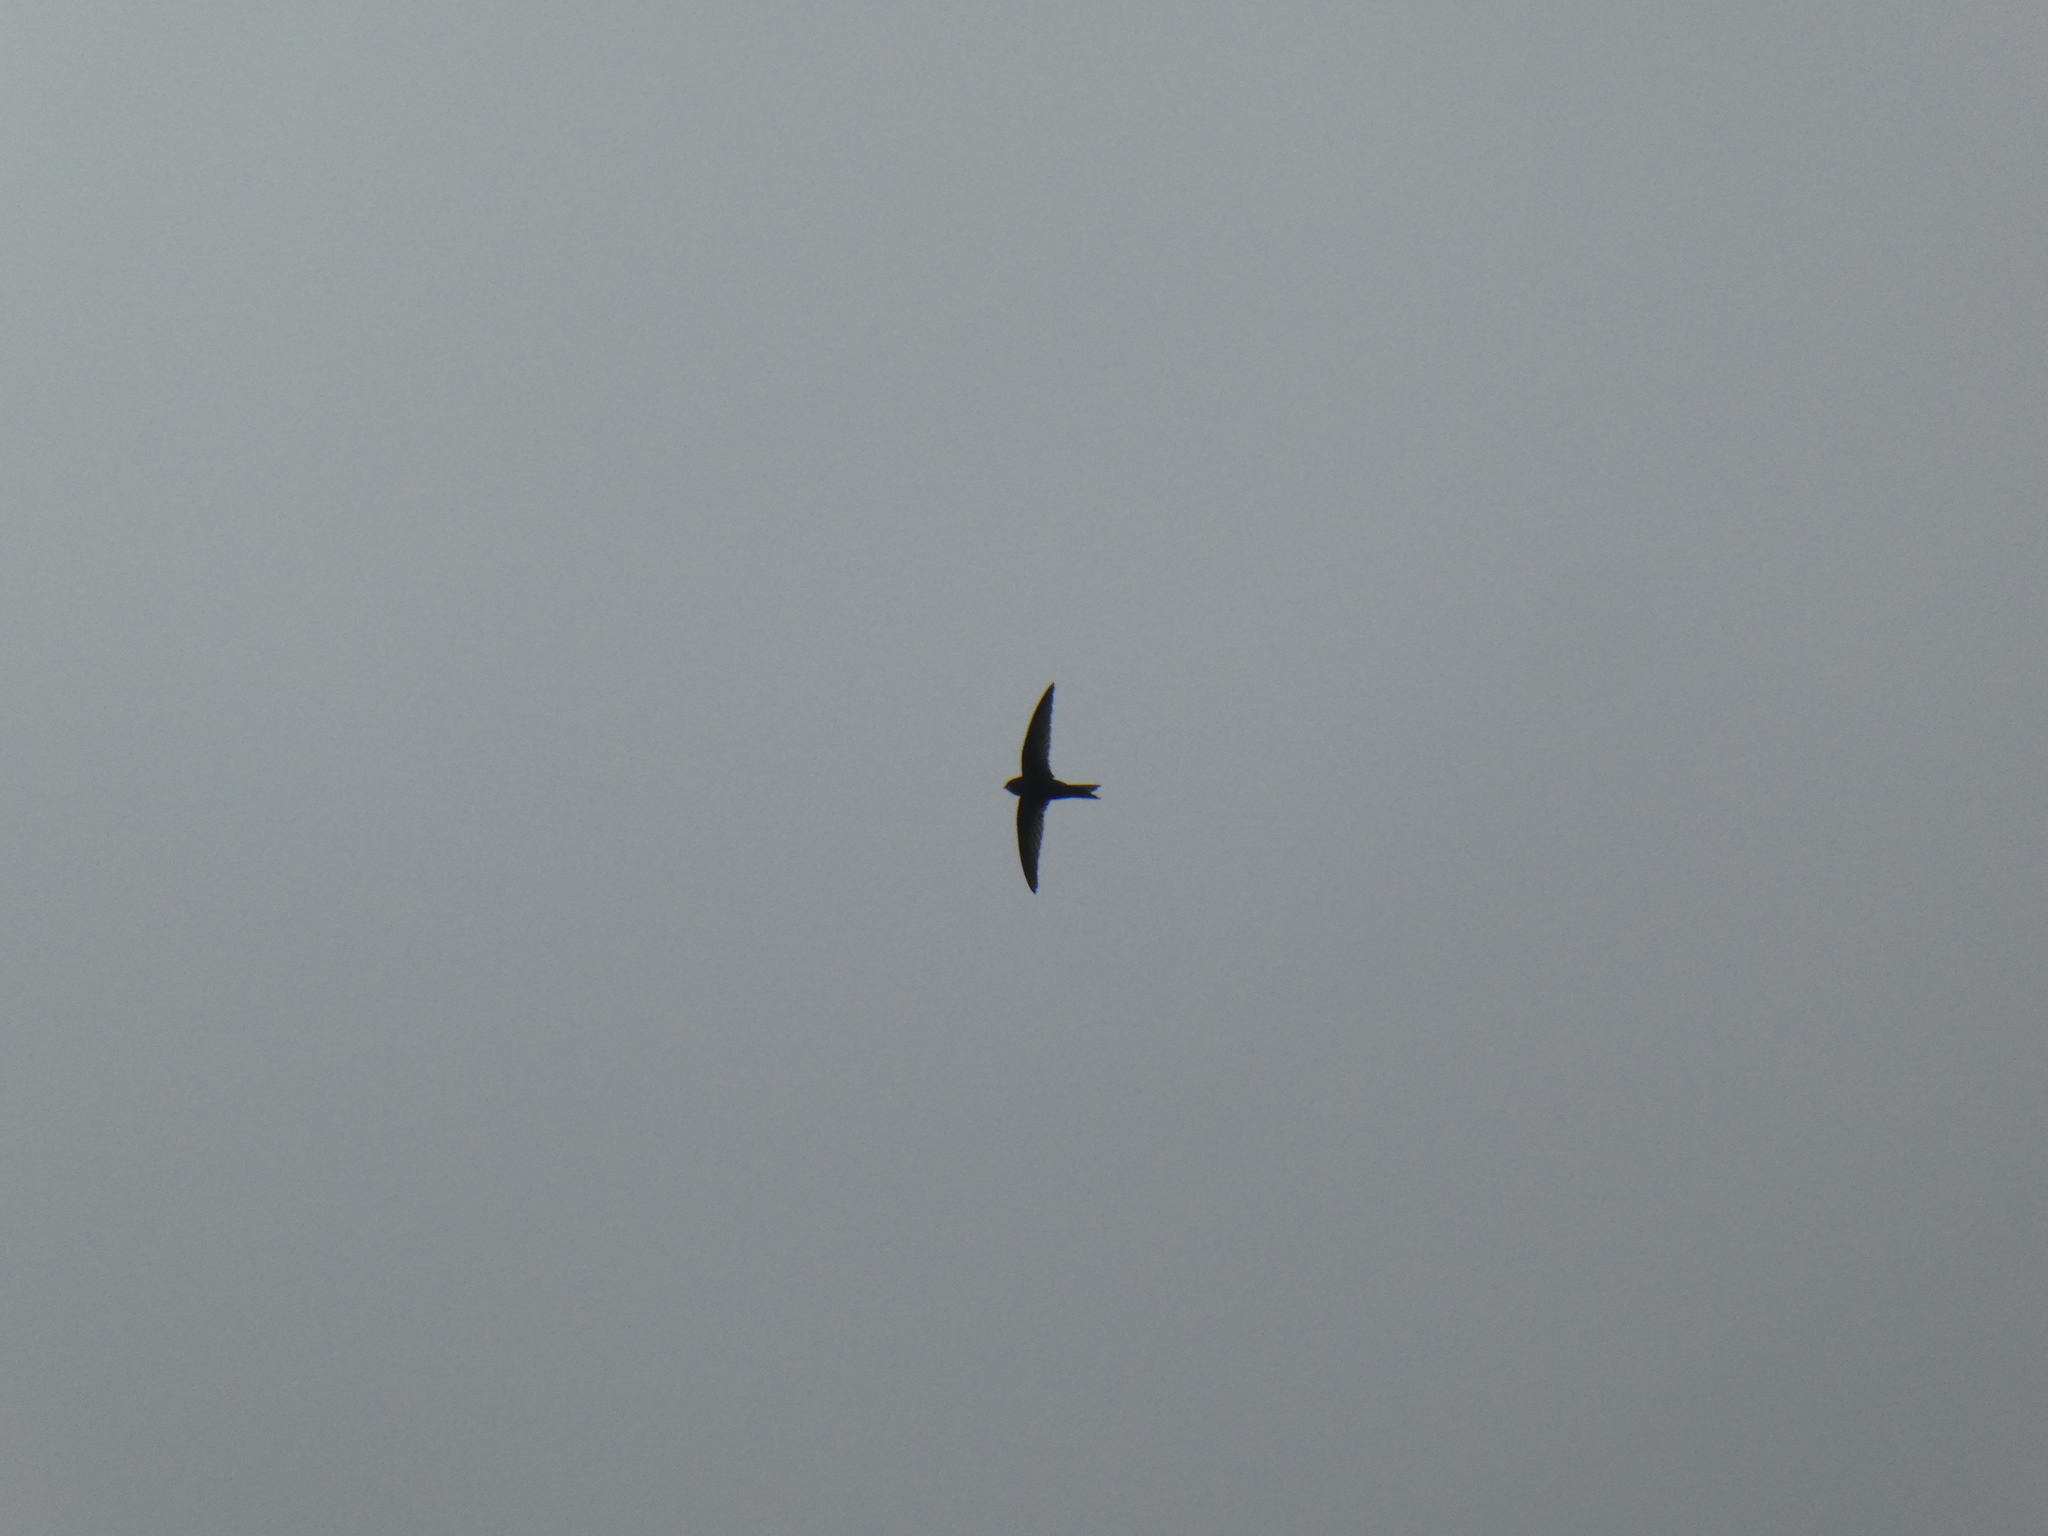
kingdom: Animalia
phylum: Chordata
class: Aves
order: Apodiformes
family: Apodidae
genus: Apus
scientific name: Apus apus
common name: Common swift
